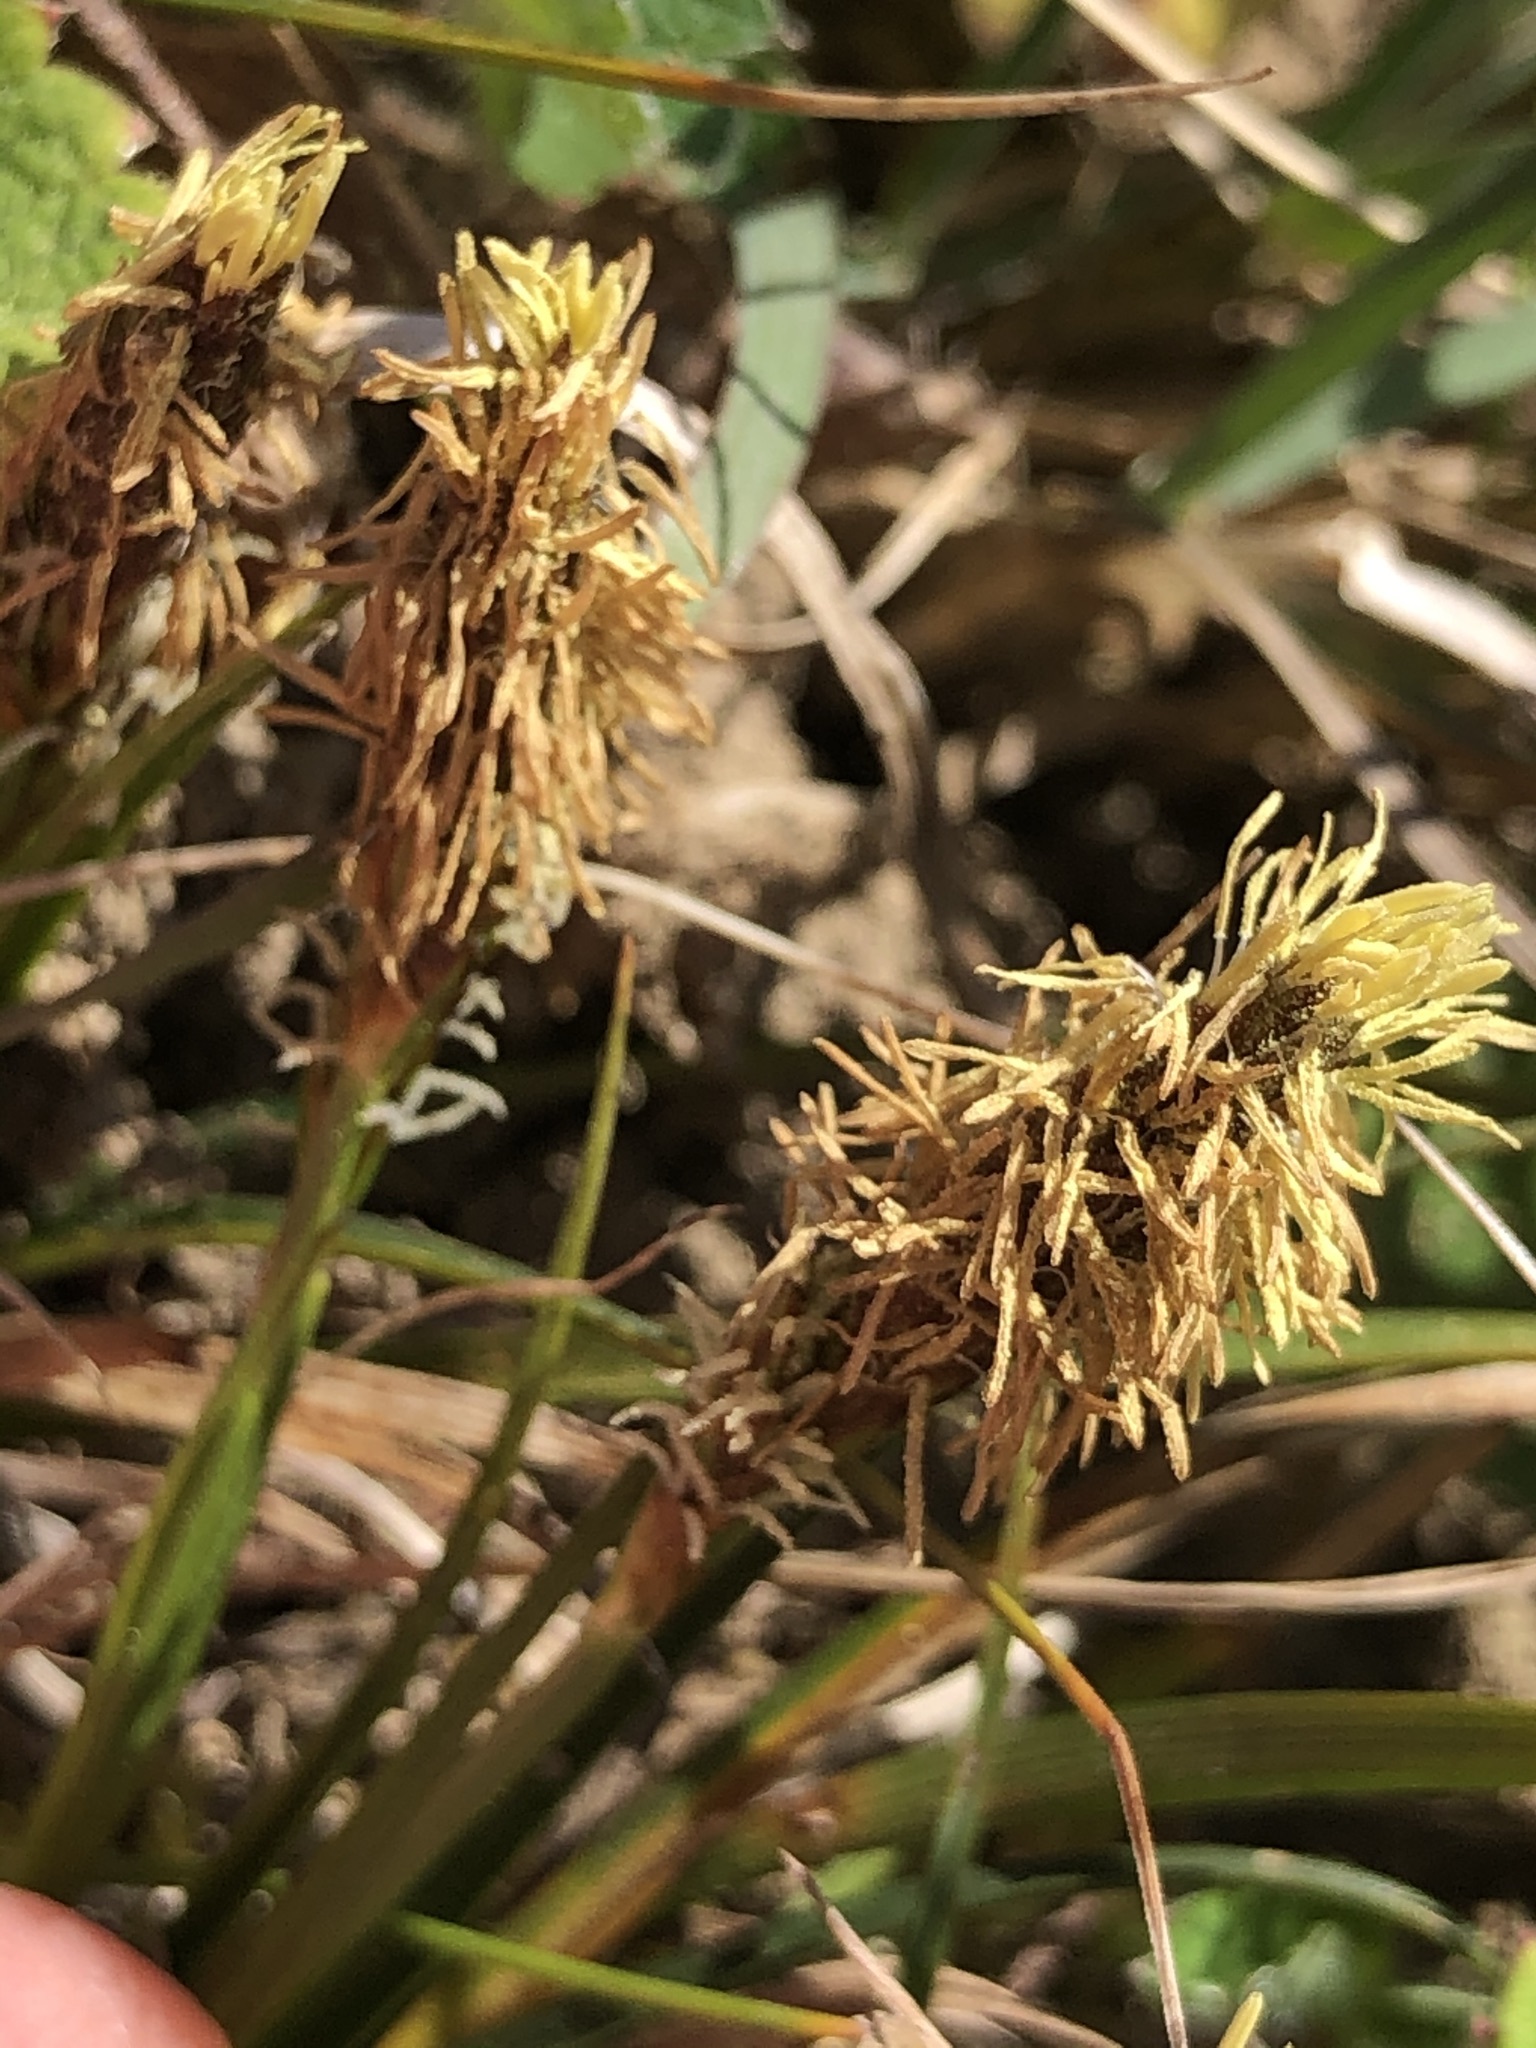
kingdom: Plantae
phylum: Tracheophyta
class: Liliopsida
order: Poales
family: Cyperaceae
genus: Carex
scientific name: Carex caryophyllea
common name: Spring sedge
